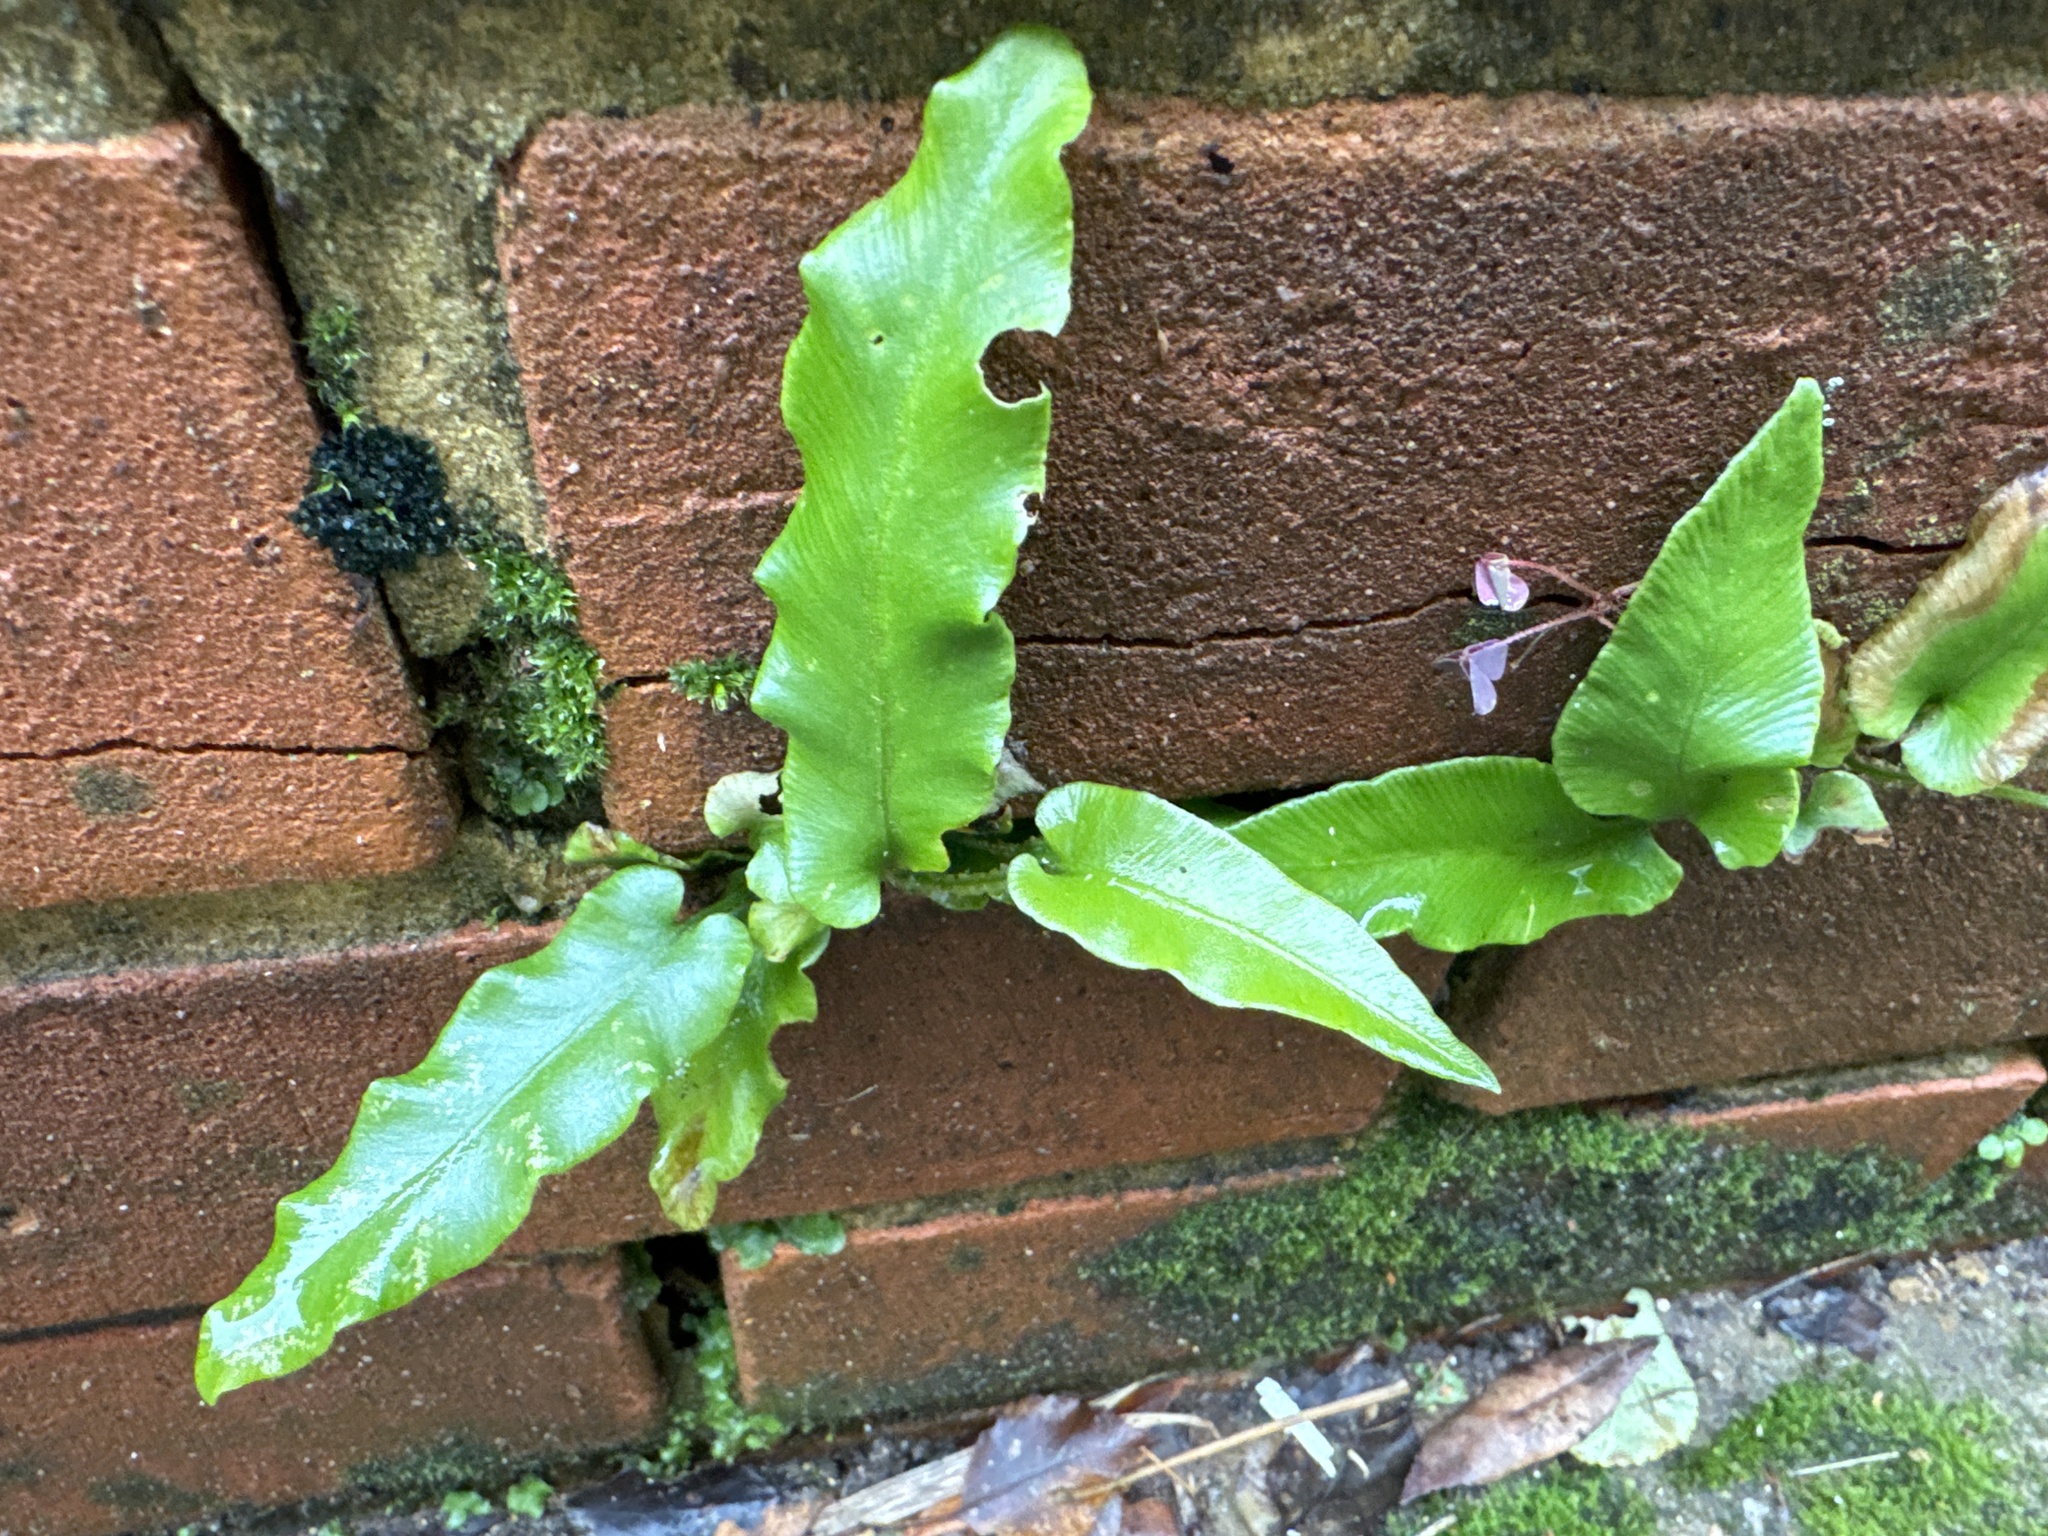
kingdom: Plantae
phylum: Tracheophyta
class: Polypodiopsida
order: Polypodiales
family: Aspleniaceae
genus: Asplenium
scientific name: Asplenium scolopendrium
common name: Hart's-tongue fern
